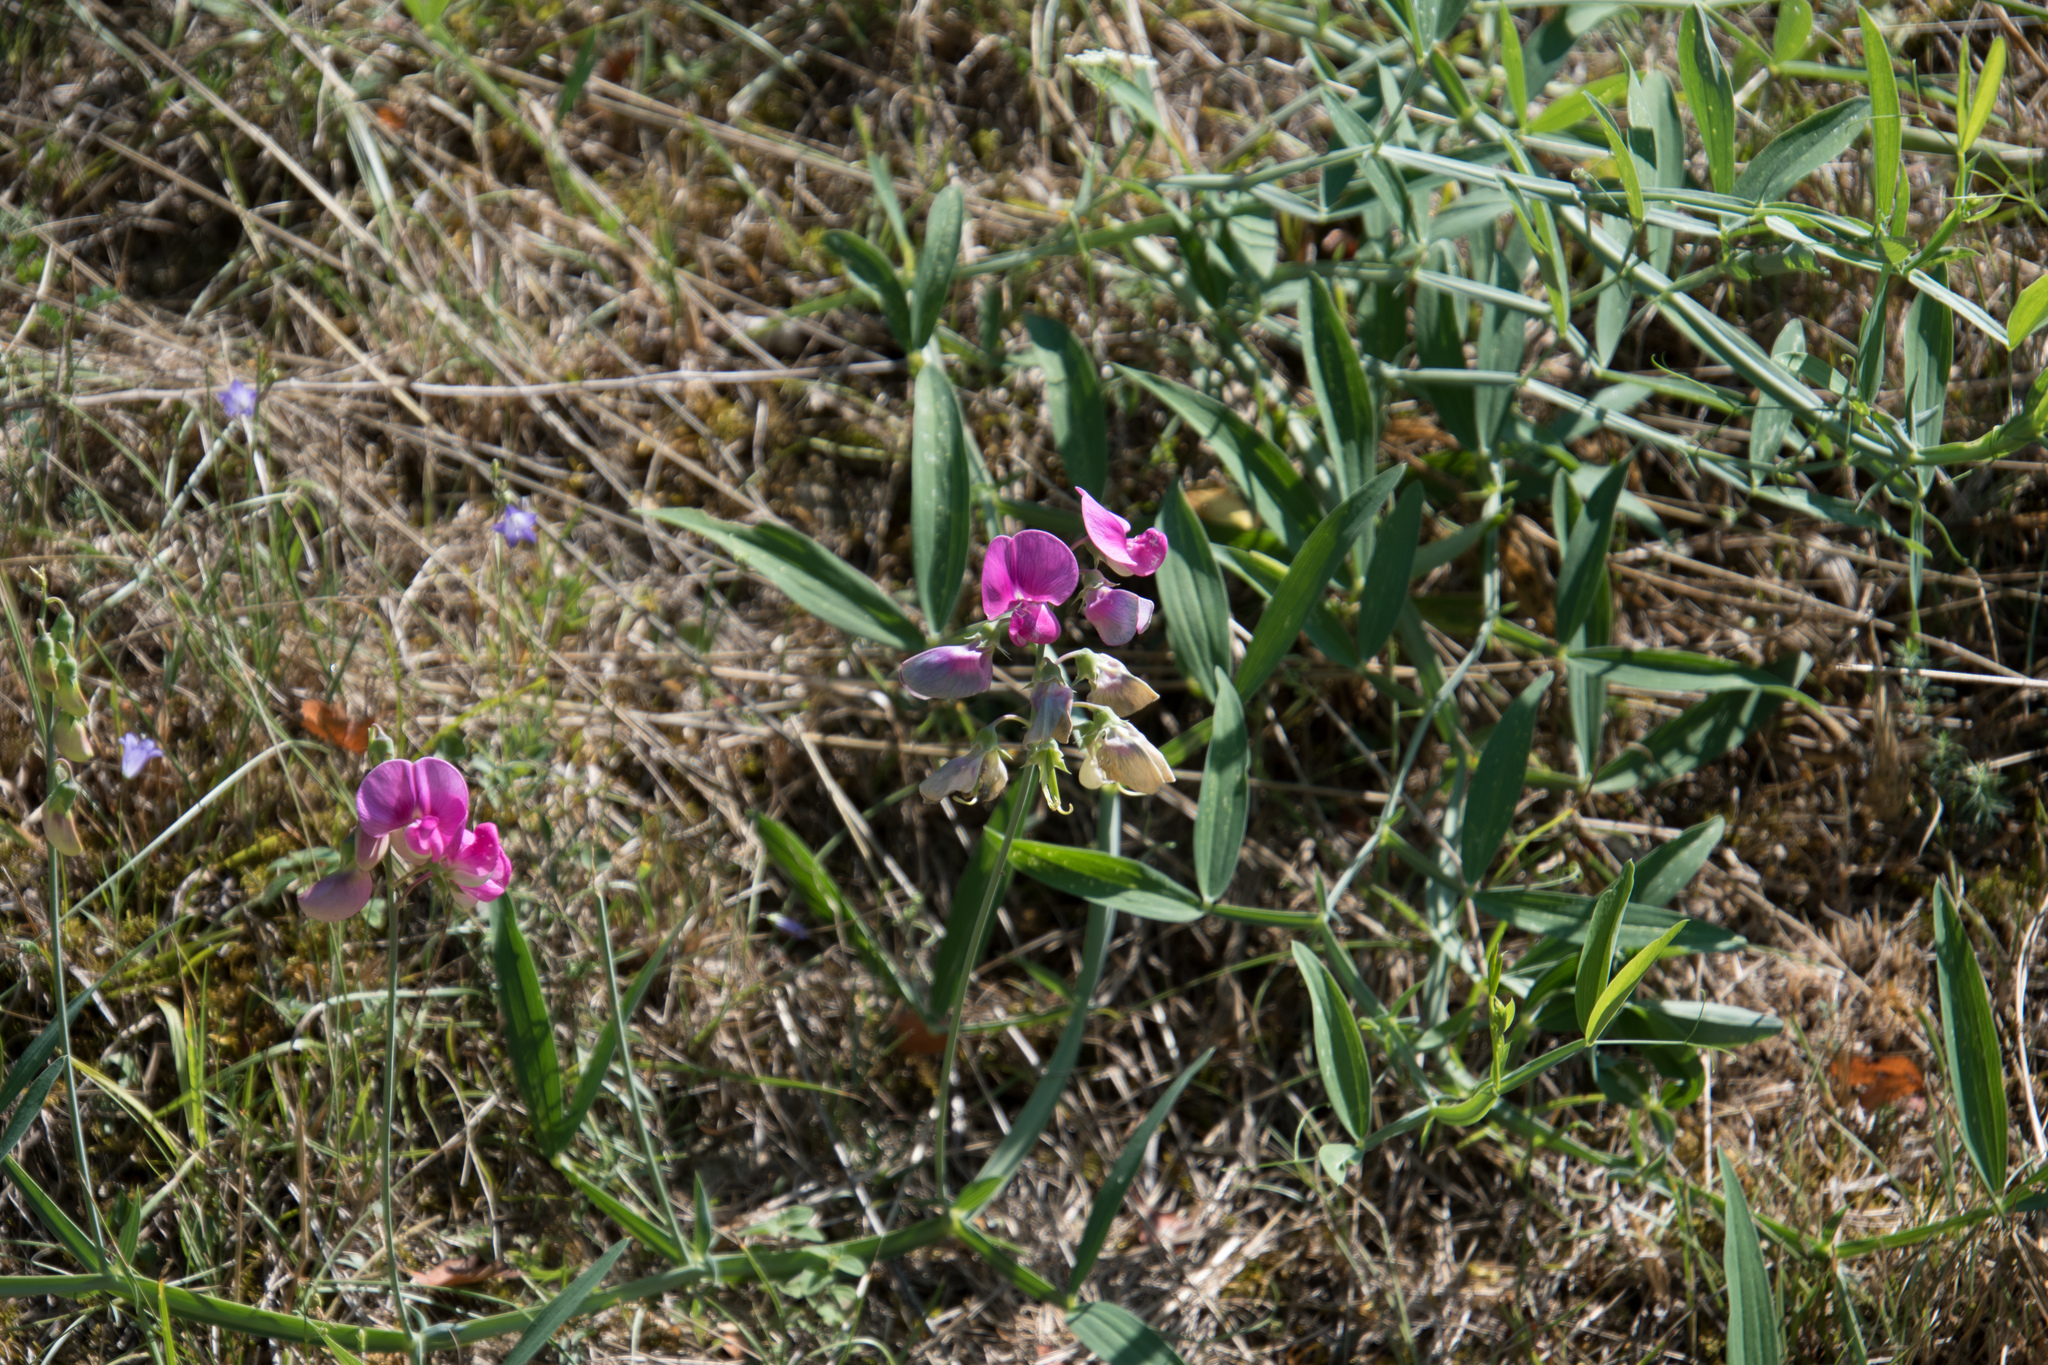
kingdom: Plantae
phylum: Tracheophyta
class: Magnoliopsida
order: Fabales
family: Fabaceae
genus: Lathyrus
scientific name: Lathyrus latifolius
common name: Perennial pea
